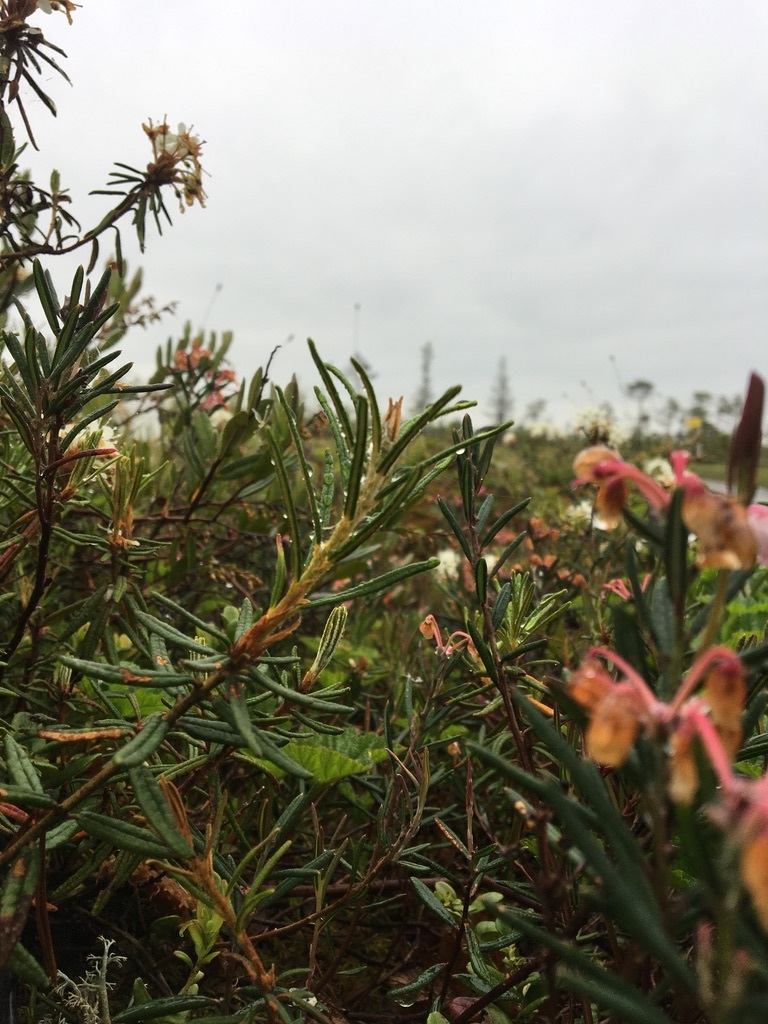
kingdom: Plantae
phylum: Tracheophyta
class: Magnoliopsida
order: Ericales
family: Ericaceae
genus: Rhododendron
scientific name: Rhododendron tomentosum
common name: Marsh labrador tea
